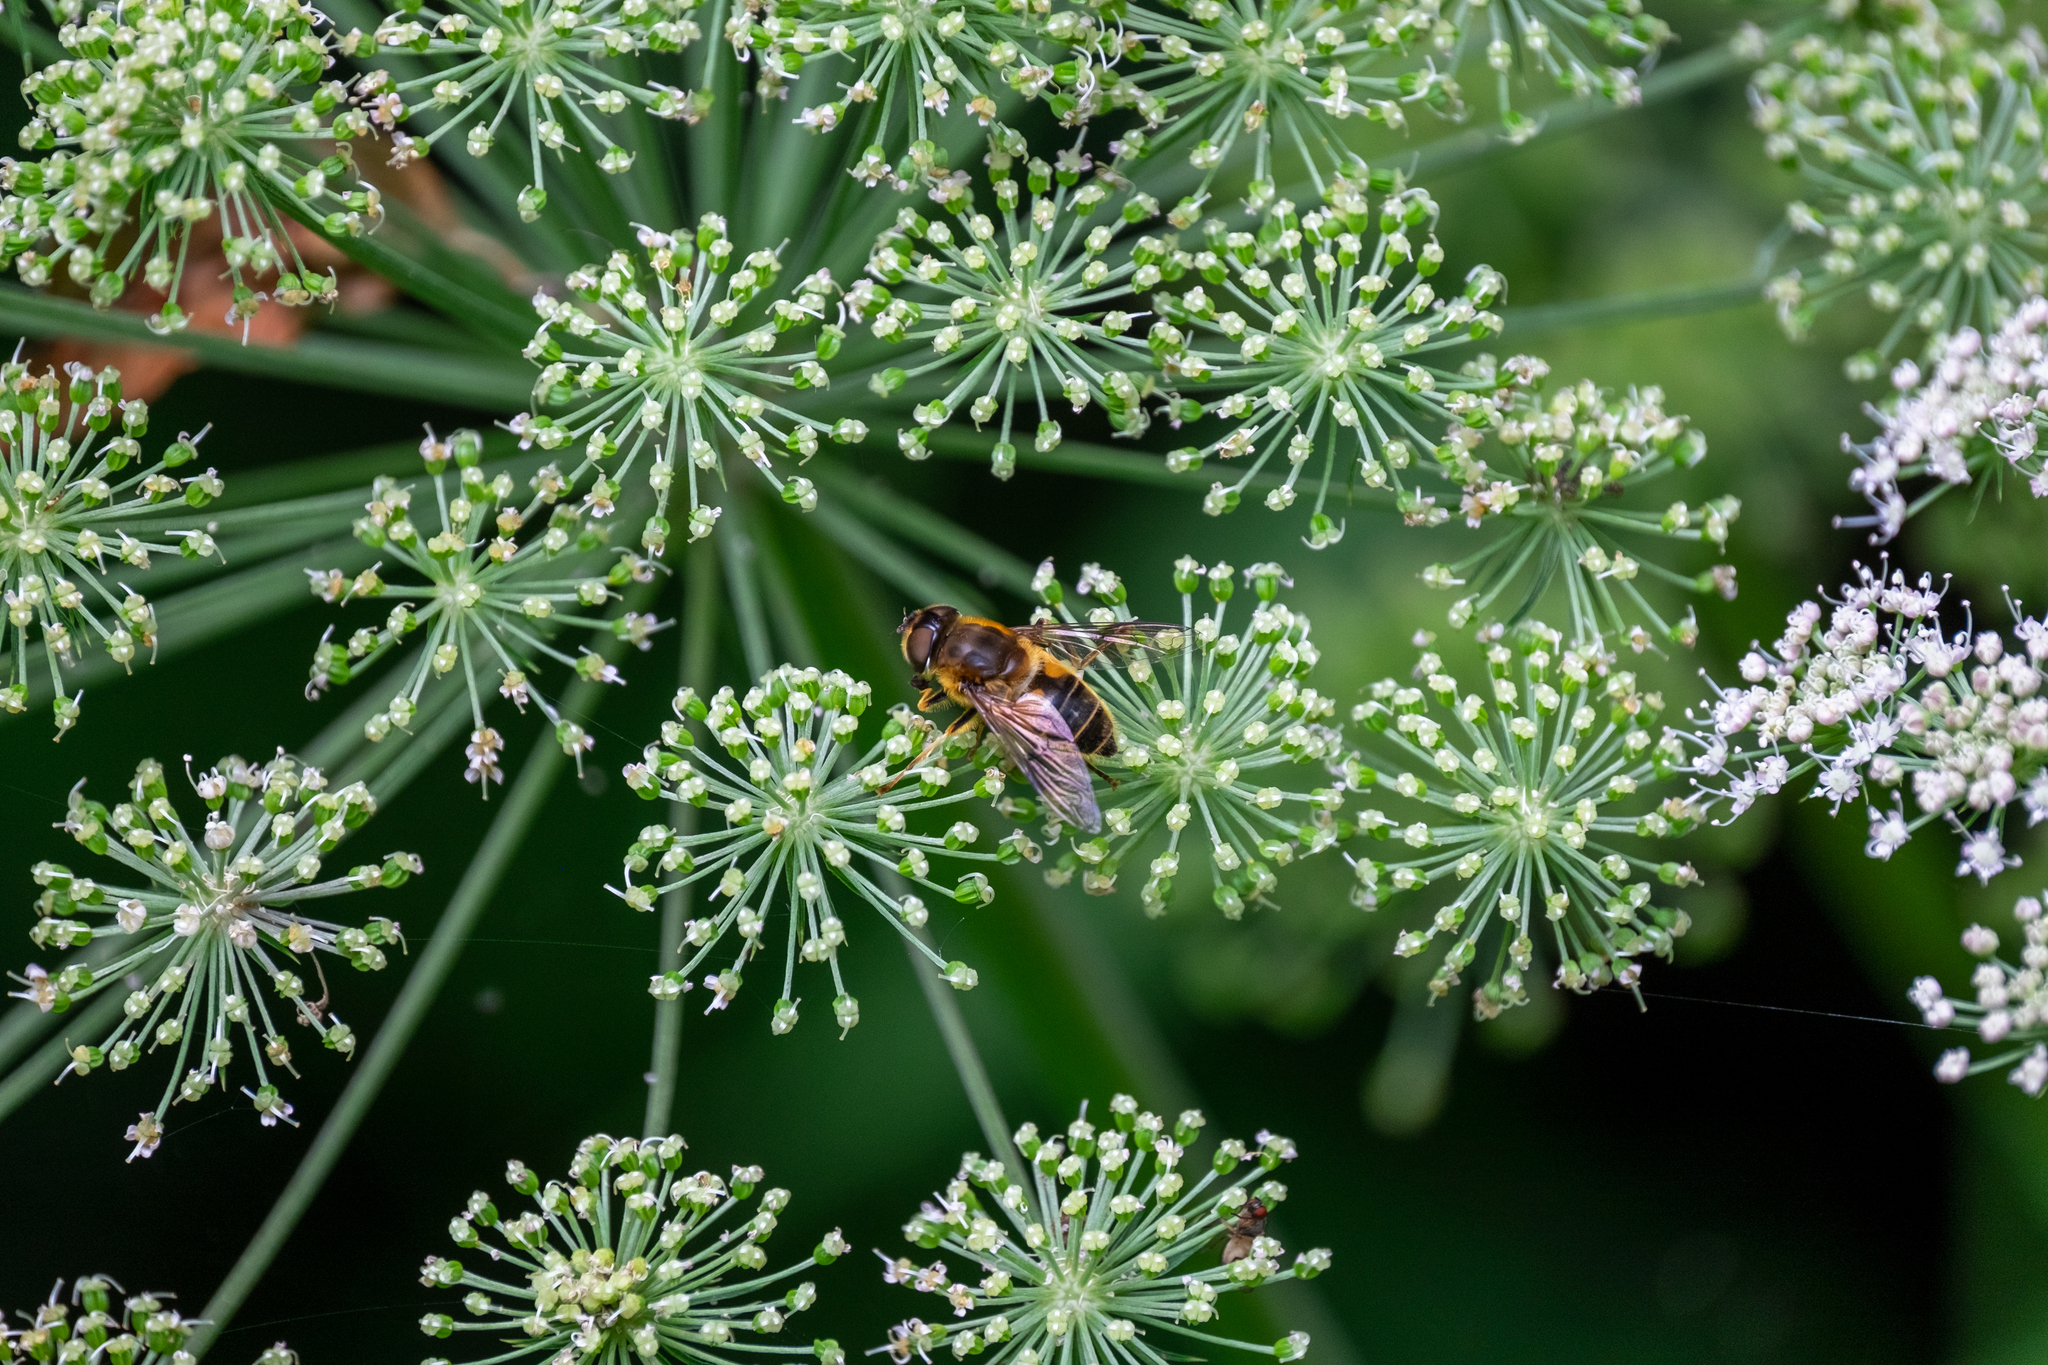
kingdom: Animalia
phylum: Arthropoda
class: Insecta
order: Diptera
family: Syrphidae
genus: Eristalis
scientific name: Eristalis pertinax
